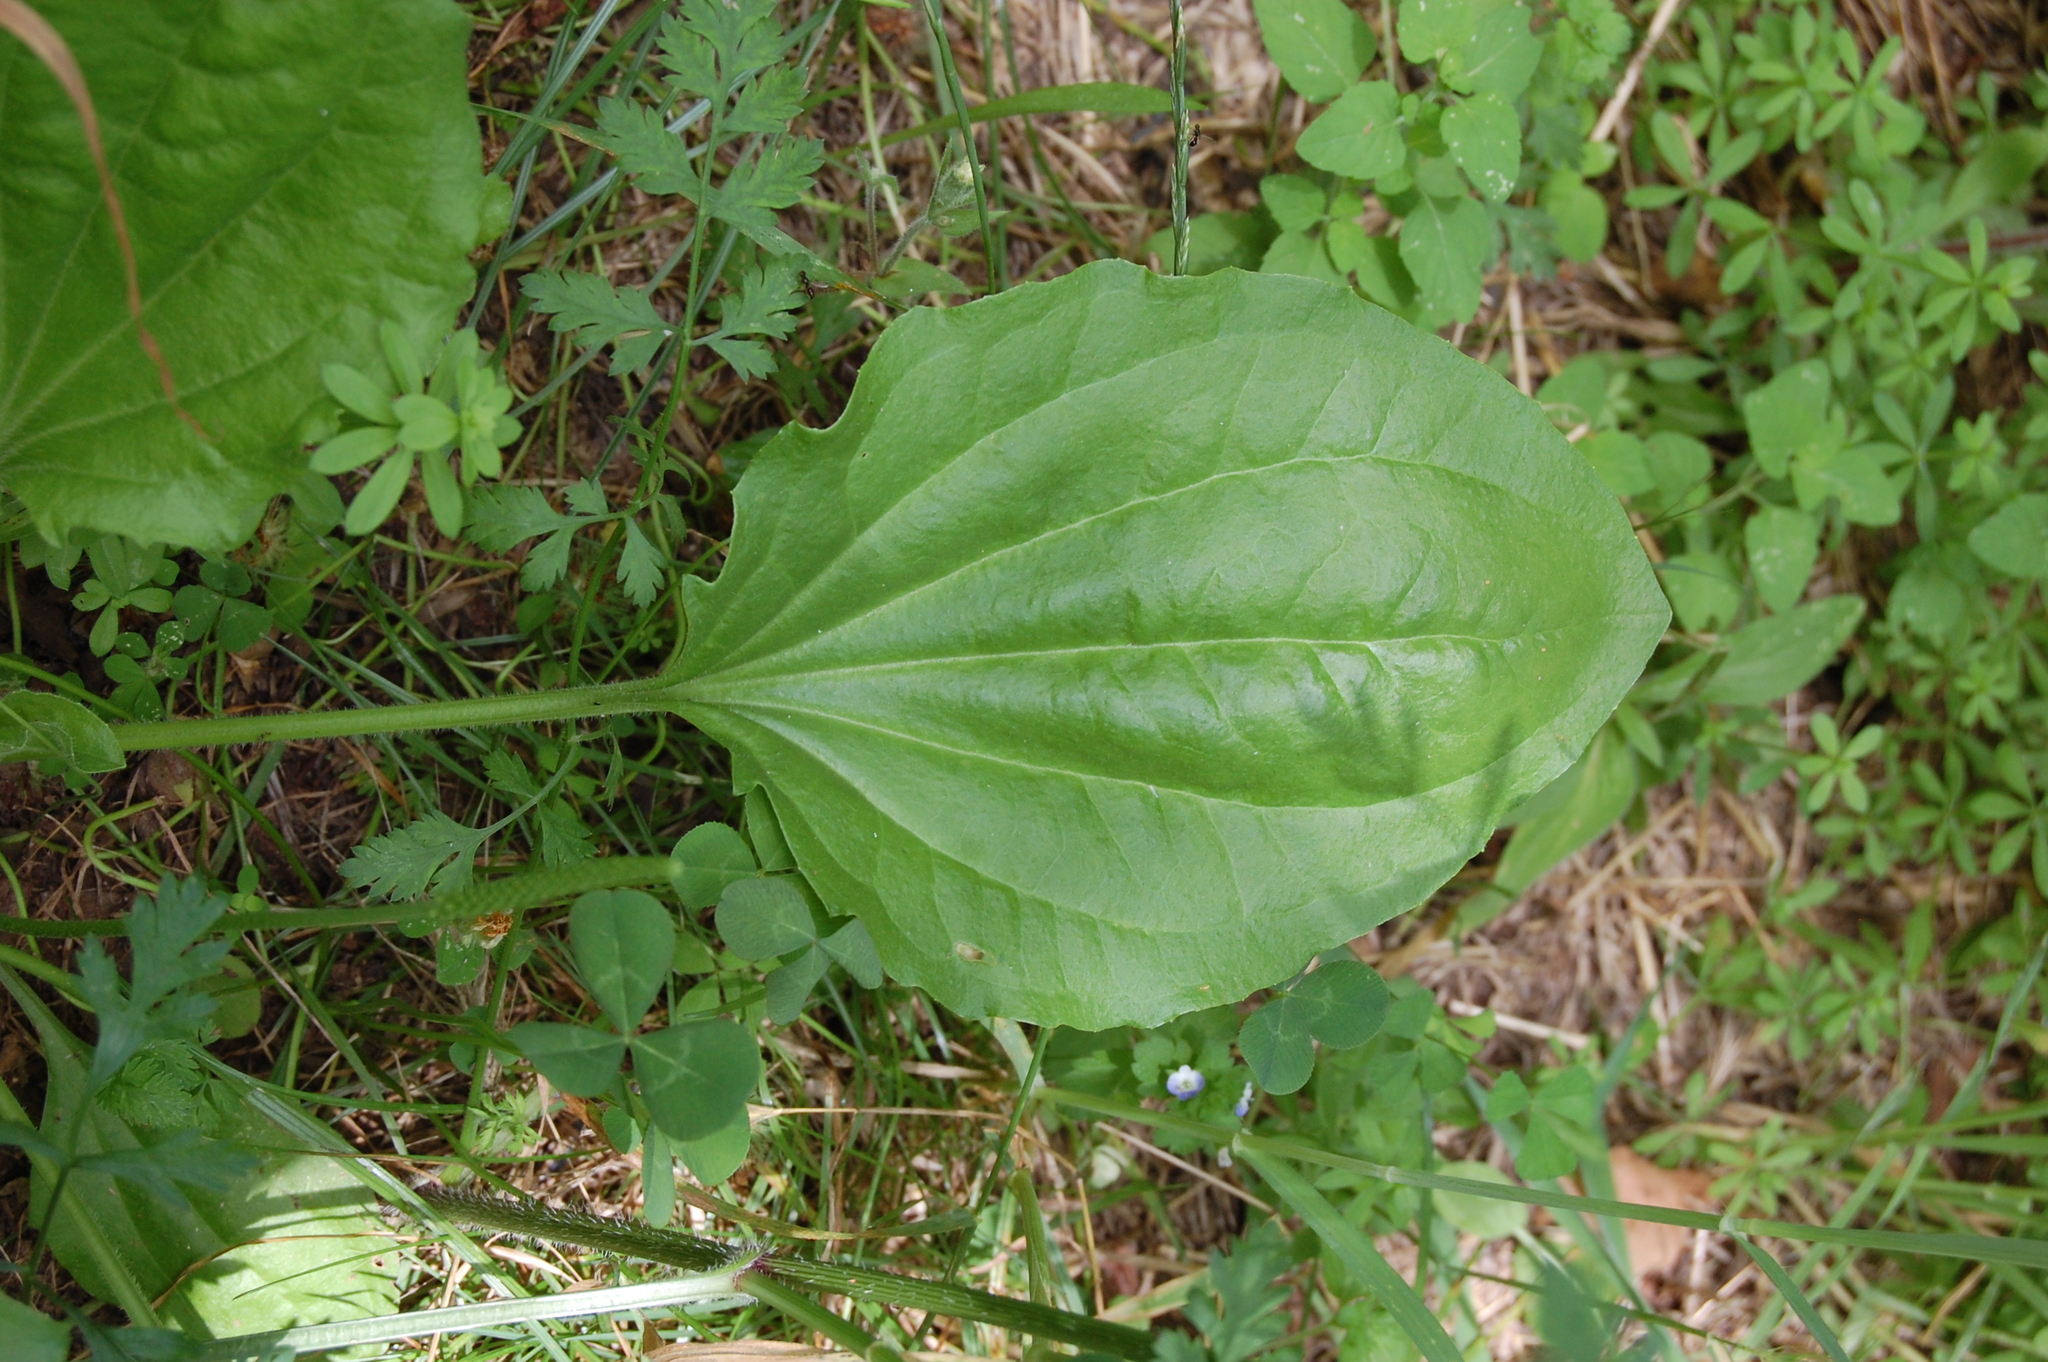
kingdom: Plantae
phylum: Tracheophyta
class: Magnoliopsida
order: Lamiales
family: Plantaginaceae
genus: Plantago
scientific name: Plantago major
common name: Common plantain
